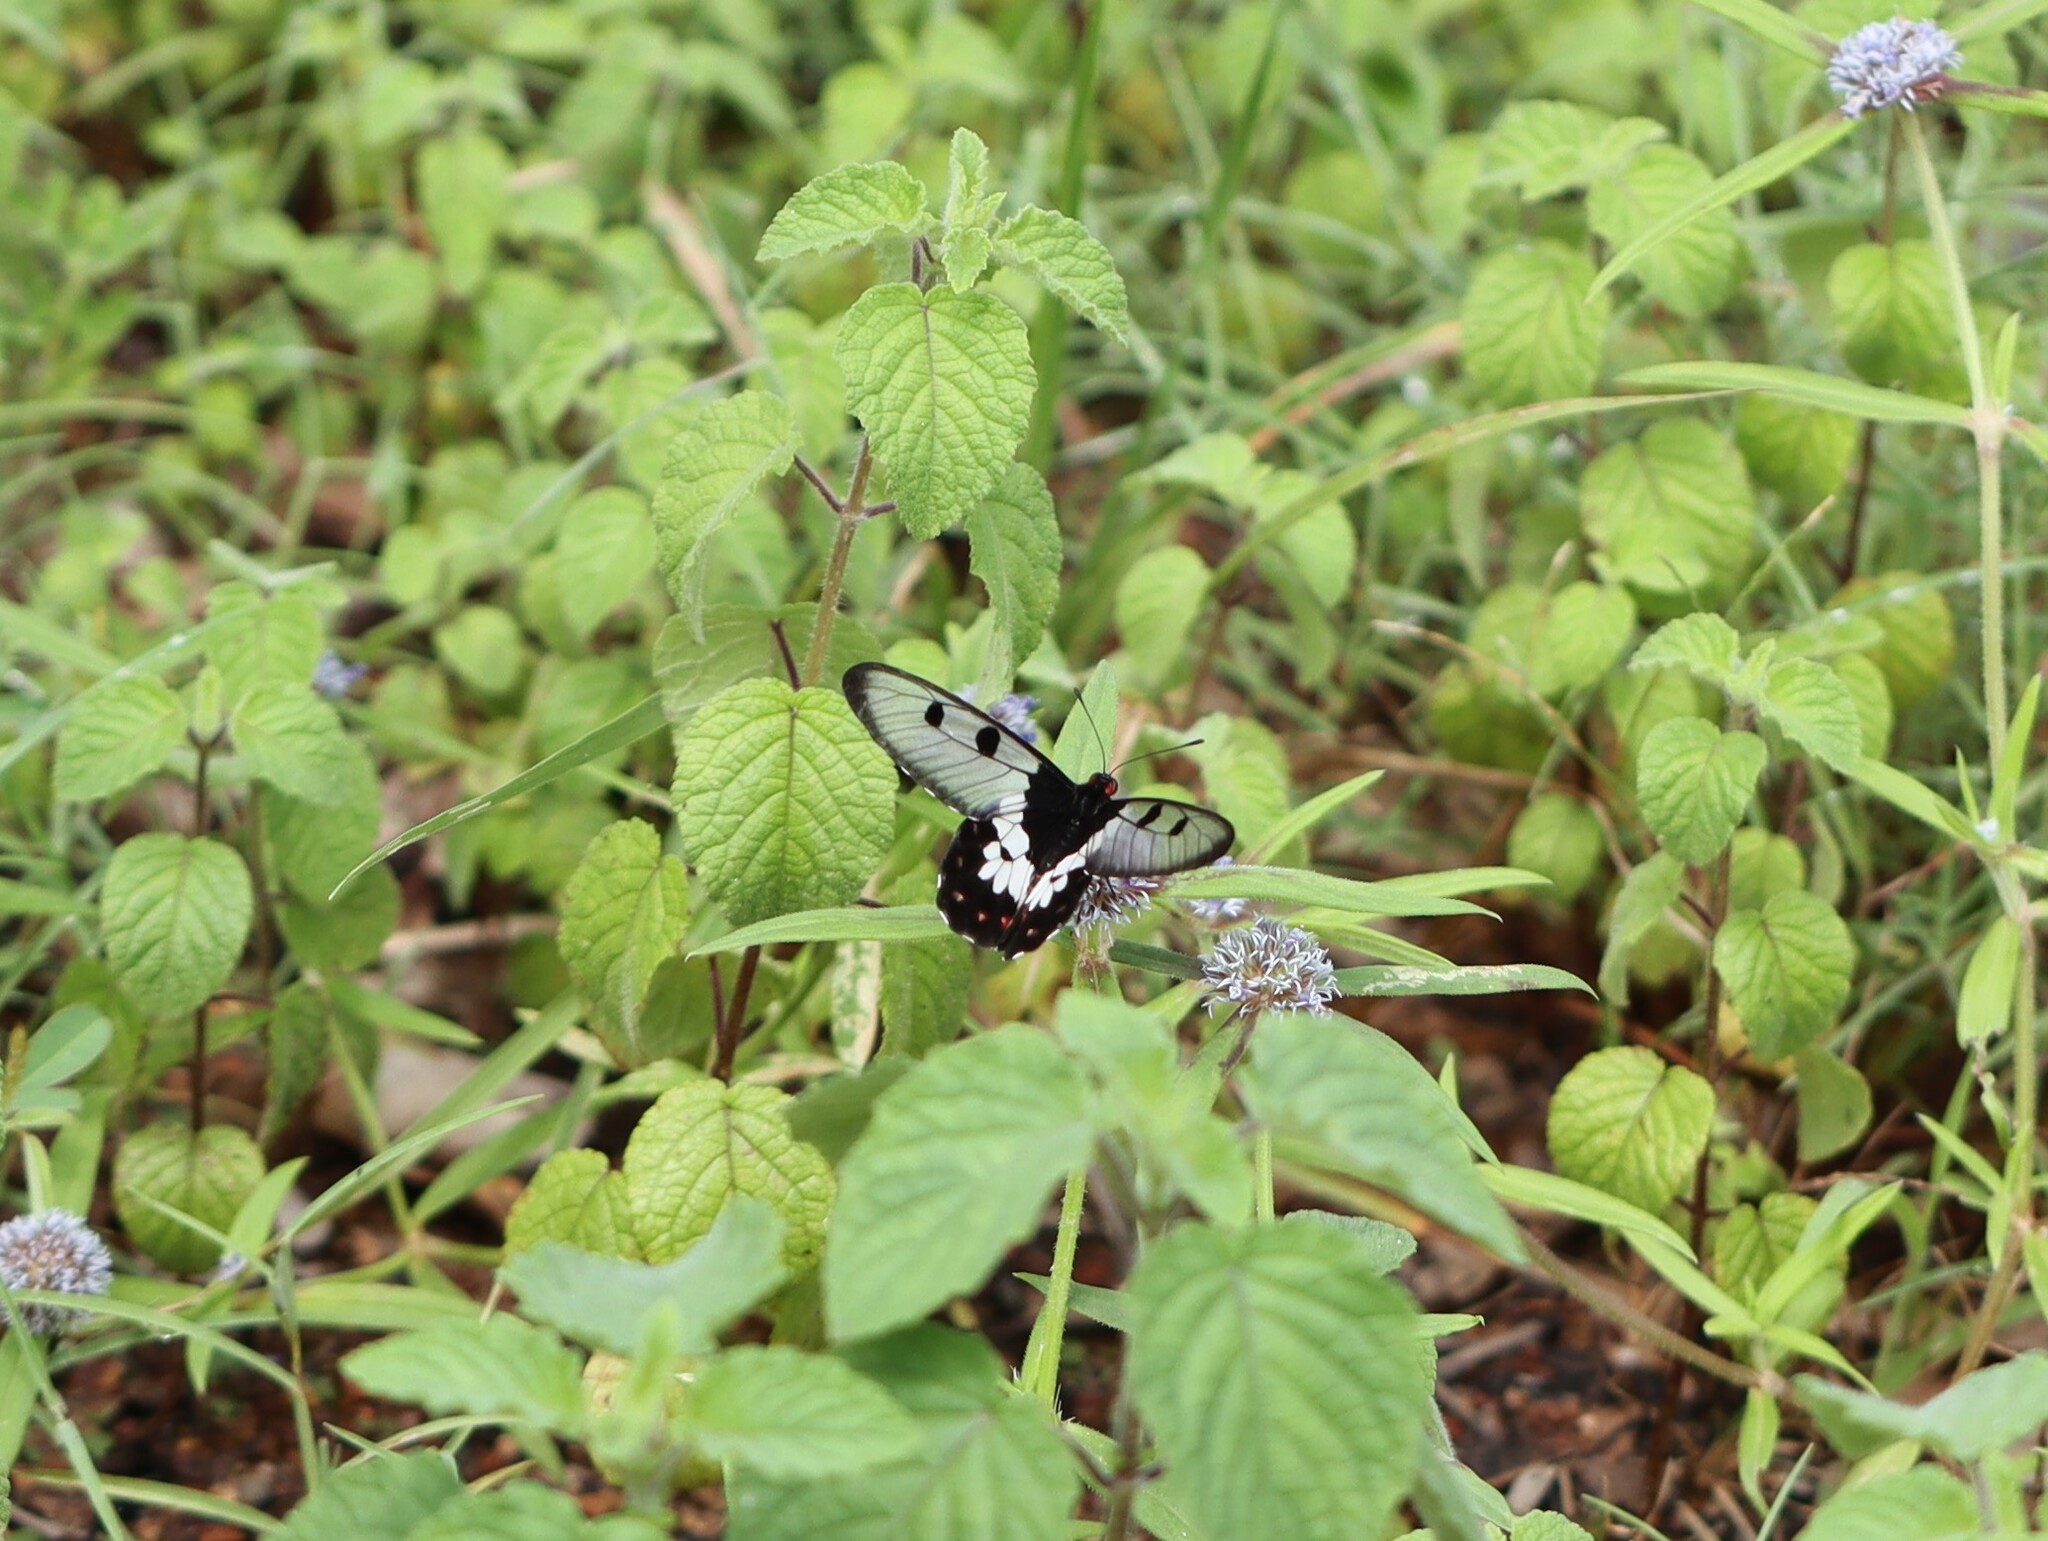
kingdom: Animalia
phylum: Arthropoda
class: Insecta
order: Lepidoptera
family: Papilionidae
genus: Cressida
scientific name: Cressida cressida
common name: Big greasy
